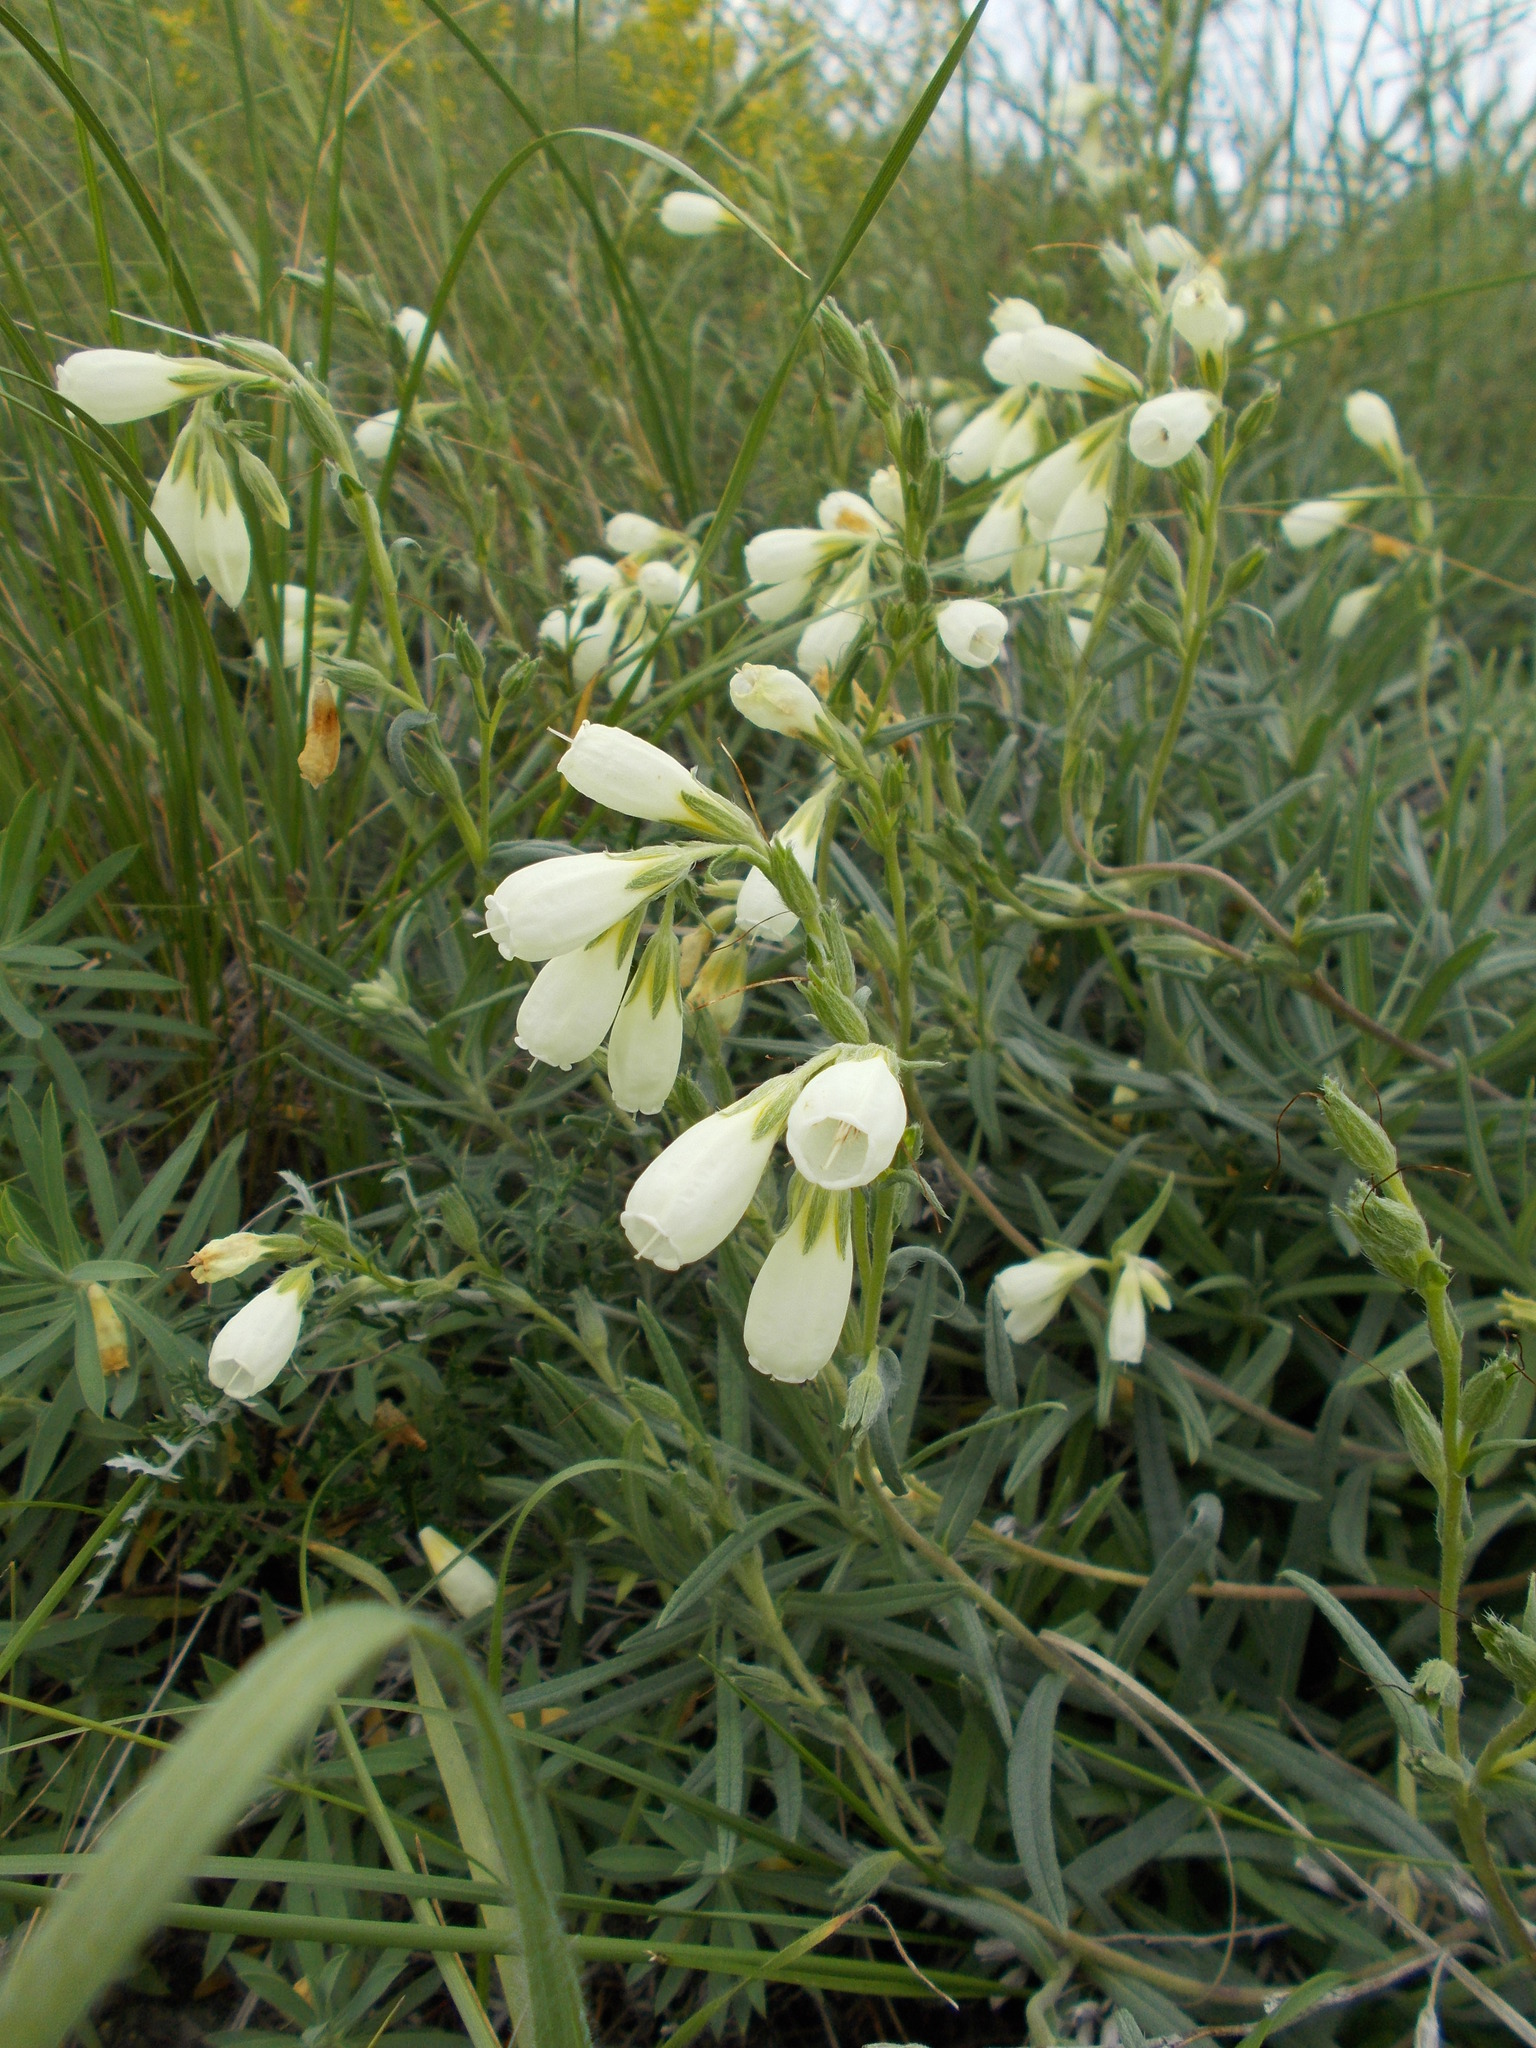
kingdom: Plantae
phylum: Tracheophyta
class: Magnoliopsida
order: Boraginales
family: Boraginaceae
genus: Onosma
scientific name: Onosma simplicissima
